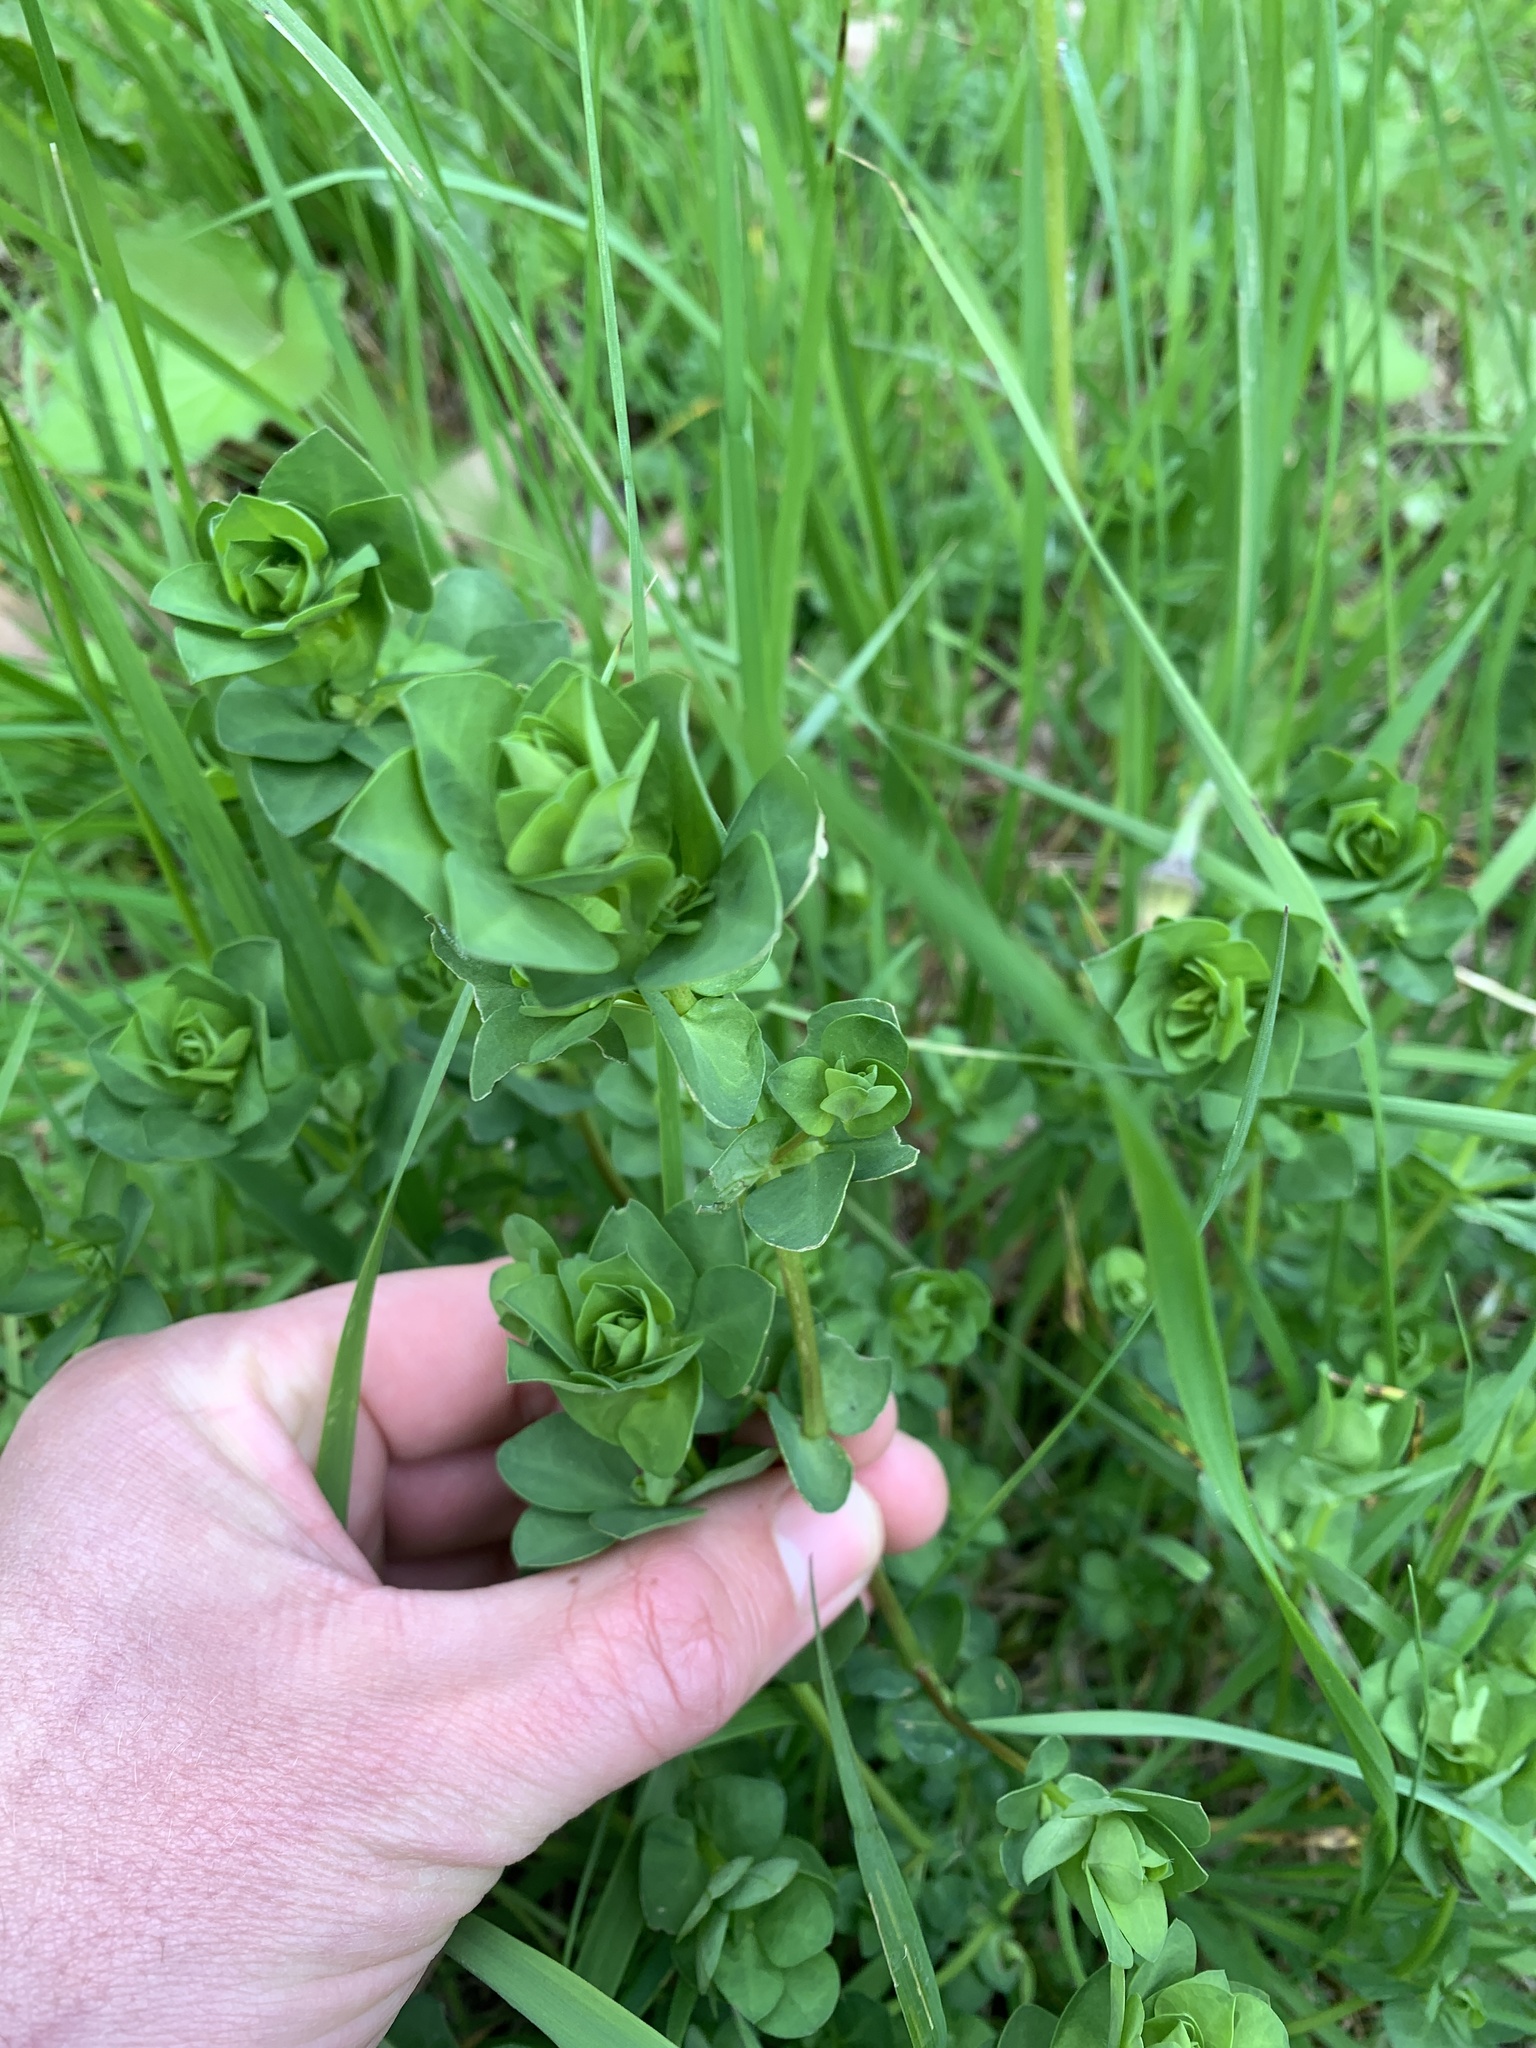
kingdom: Plantae
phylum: Tracheophyta
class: Magnoliopsida
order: Fabales
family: Fabaceae
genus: Lotus
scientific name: Lotus pedunculatus
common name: Greater birdsfoot-trefoil
